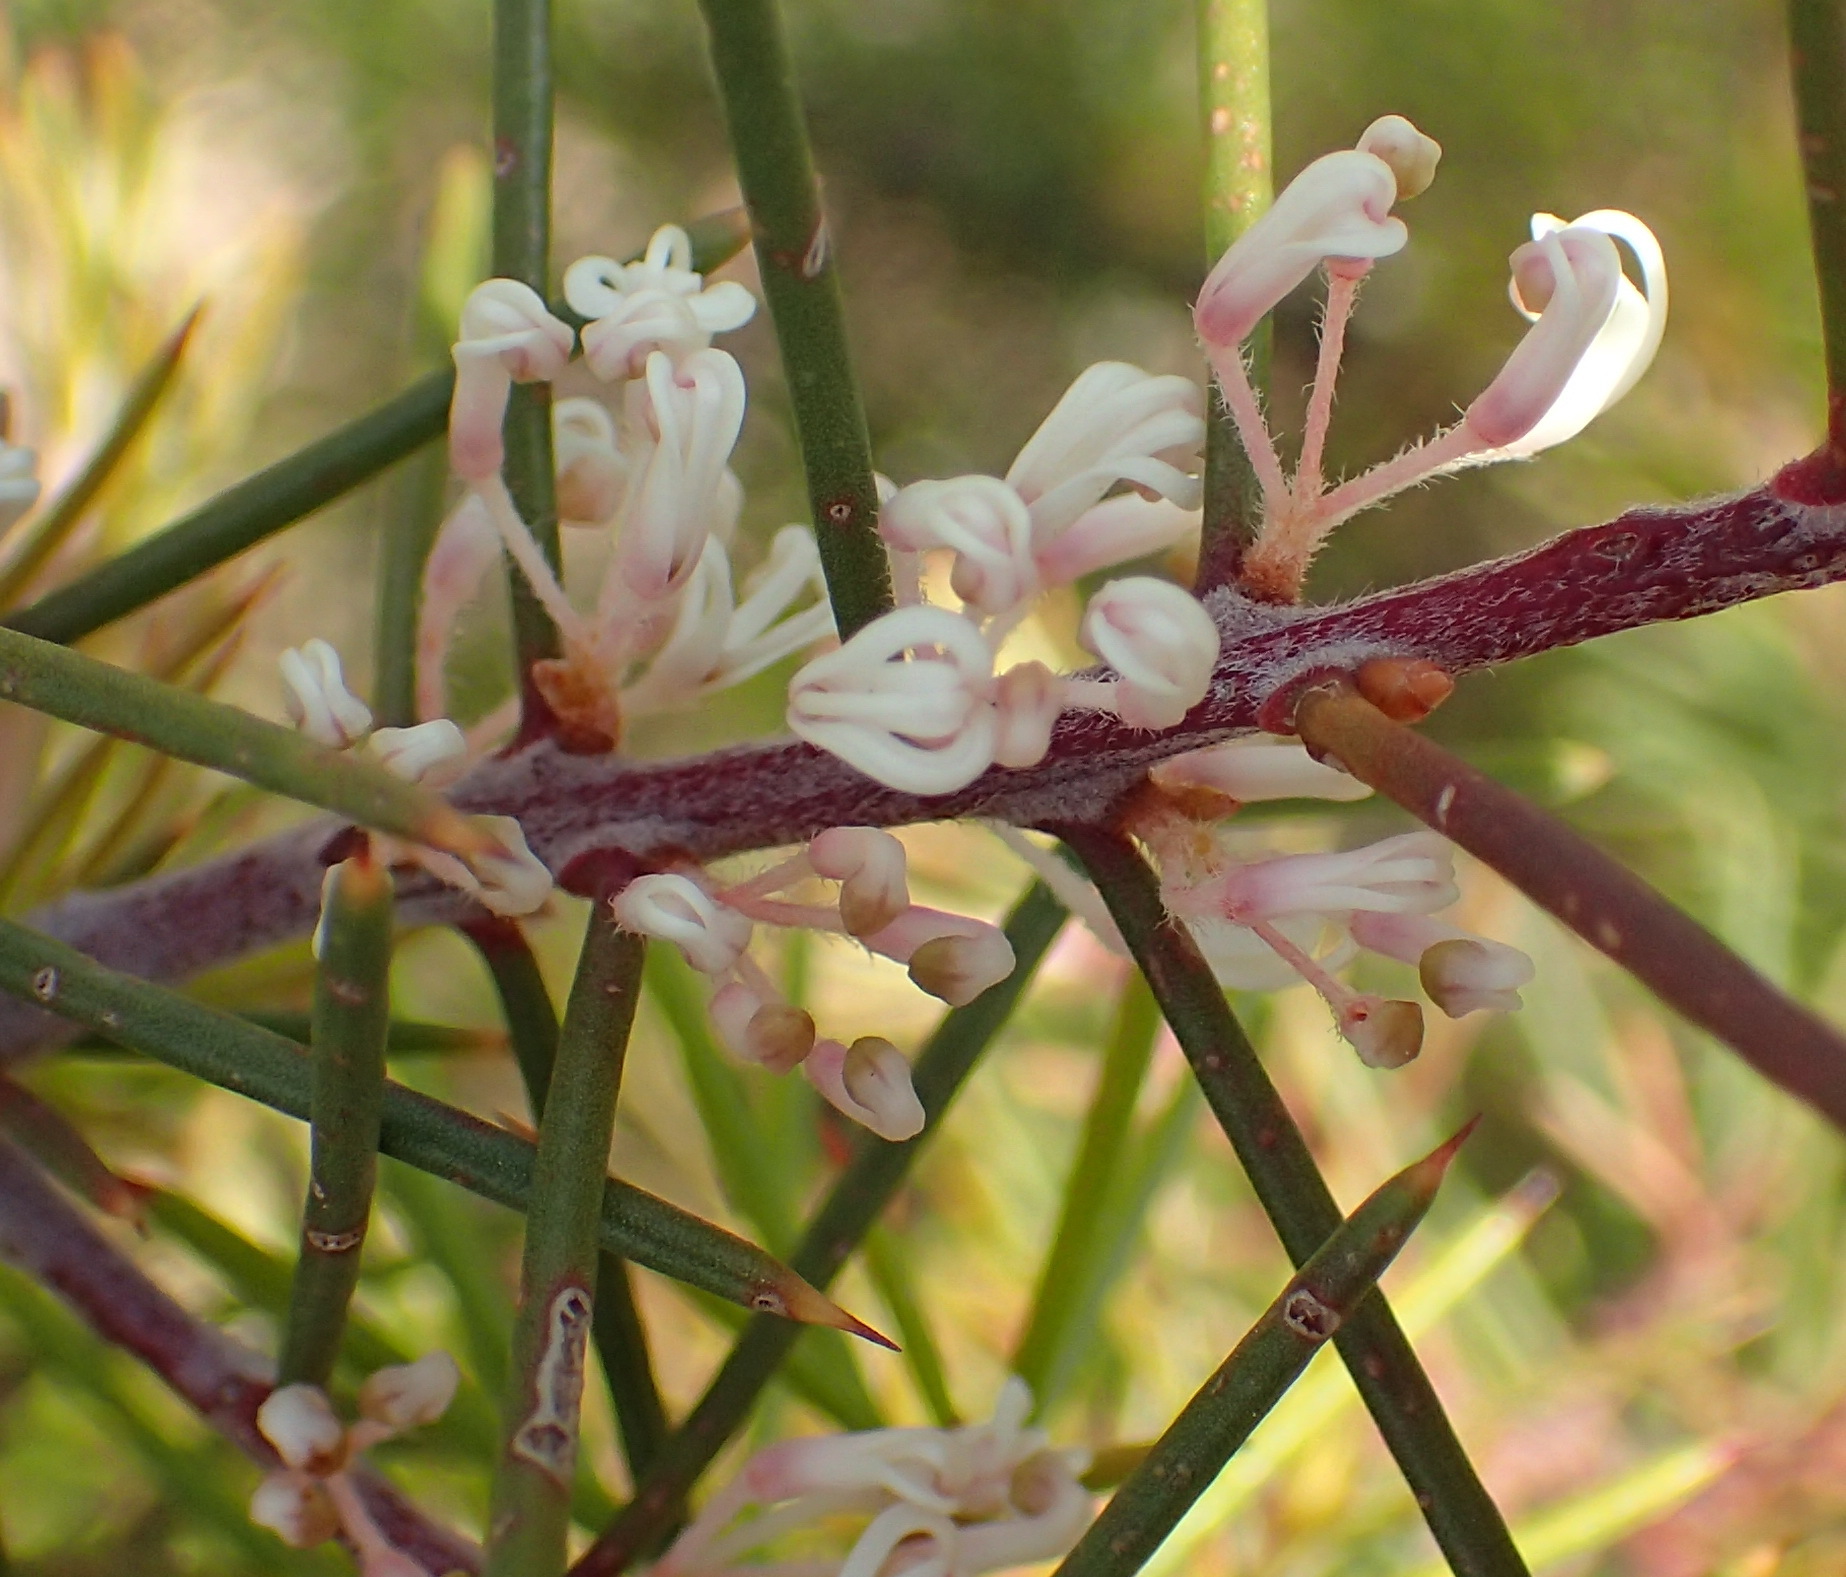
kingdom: Plantae
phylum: Tracheophyta
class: Magnoliopsida
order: Proteales
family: Proteaceae
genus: Hakea
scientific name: Hakea sericea
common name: Needle bush
